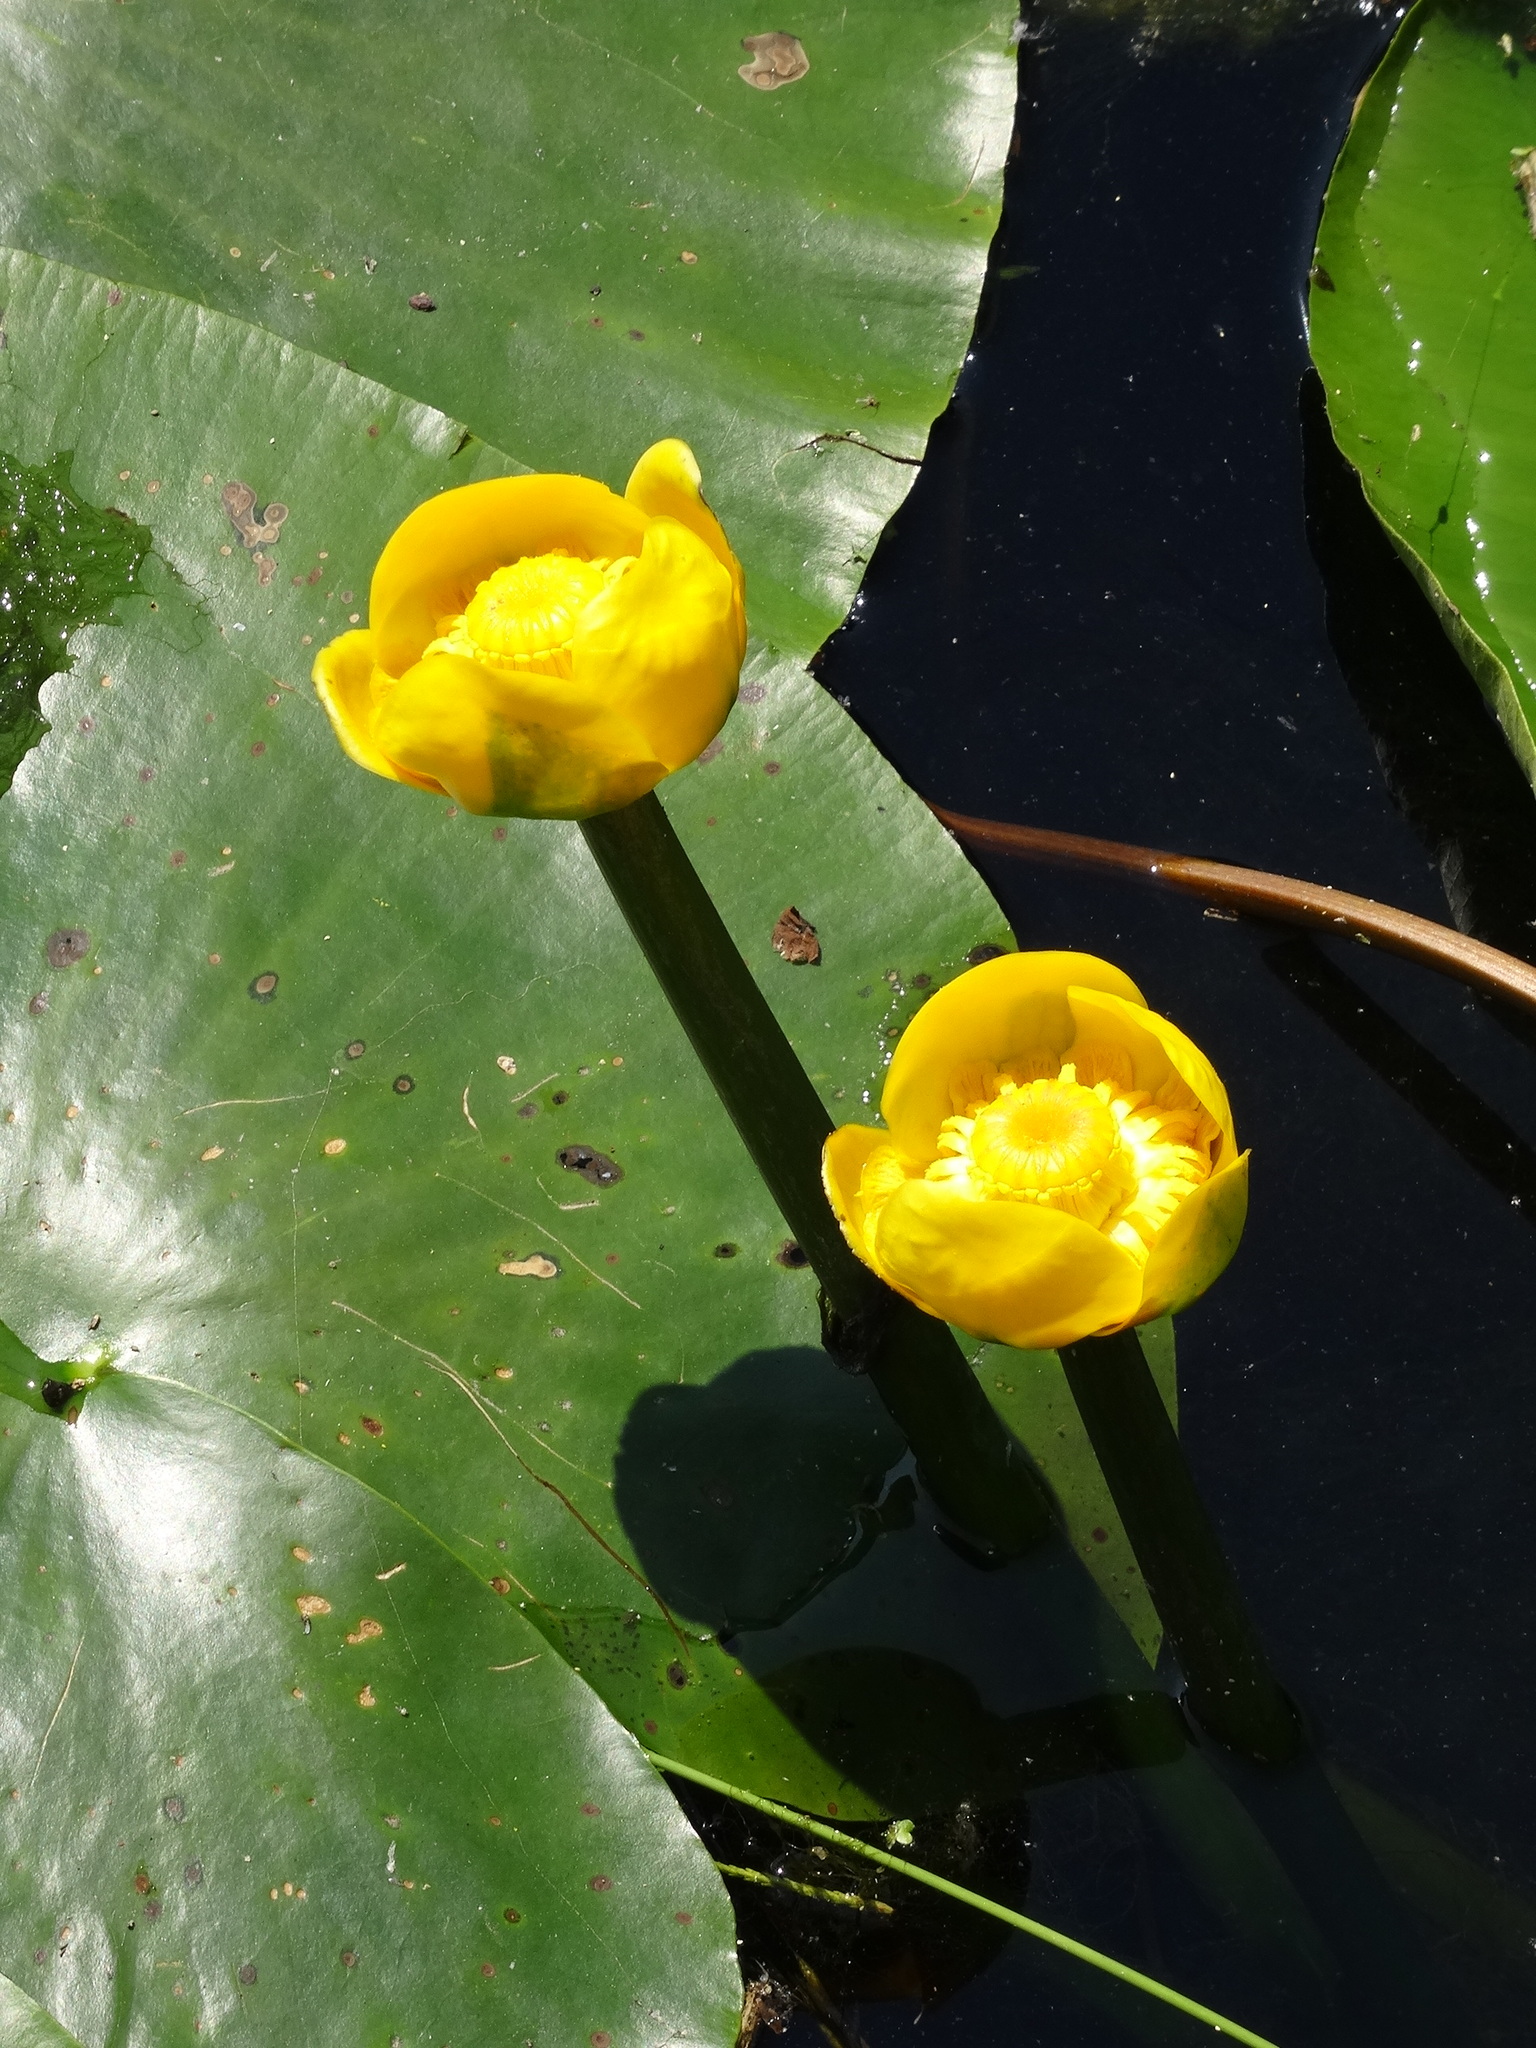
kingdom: Plantae
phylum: Tracheophyta
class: Magnoliopsida
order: Nymphaeales
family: Nymphaeaceae
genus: Nuphar
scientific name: Nuphar lutea
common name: Yellow water-lily
